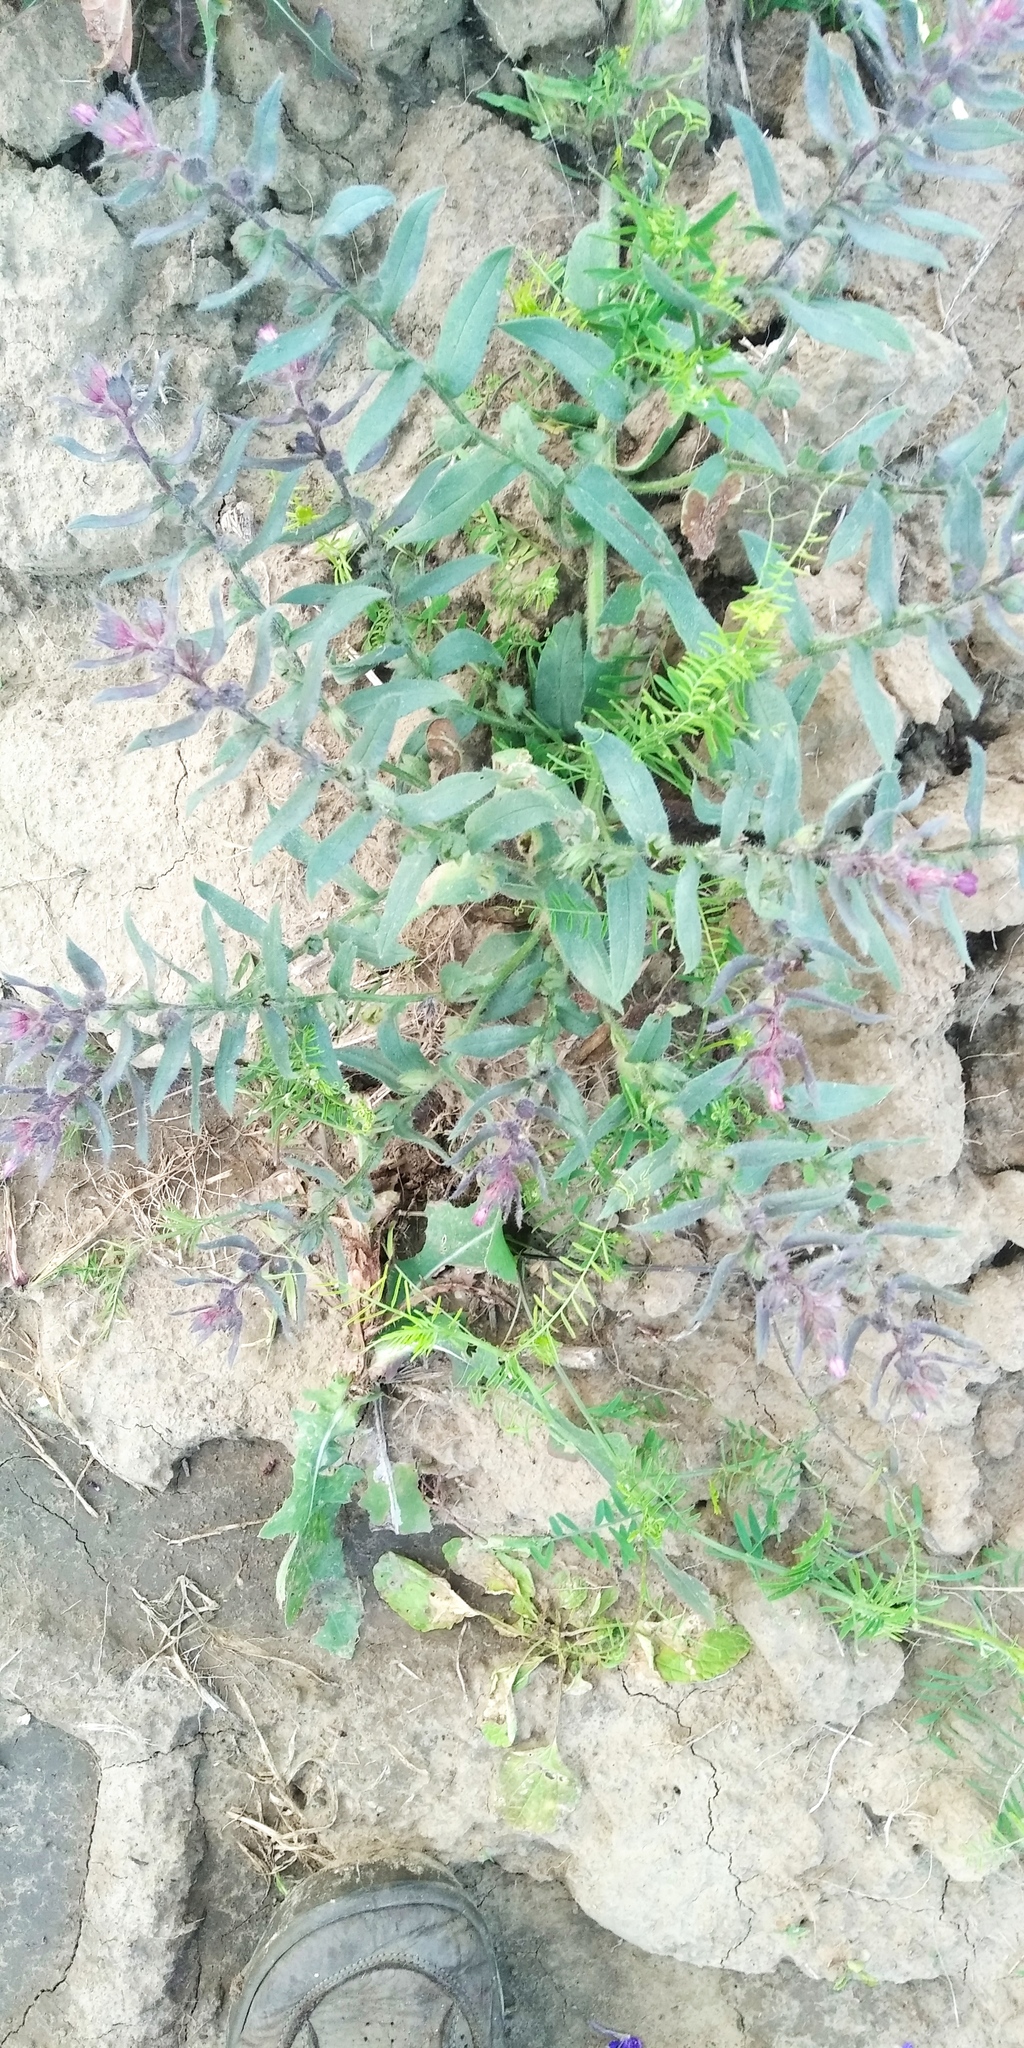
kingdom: Plantae
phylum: Tracheophyta
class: Magnoliopsida
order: Boraginales
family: Boraginaceae
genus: Nonea
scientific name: Nonea pulla
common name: Brown nonea
